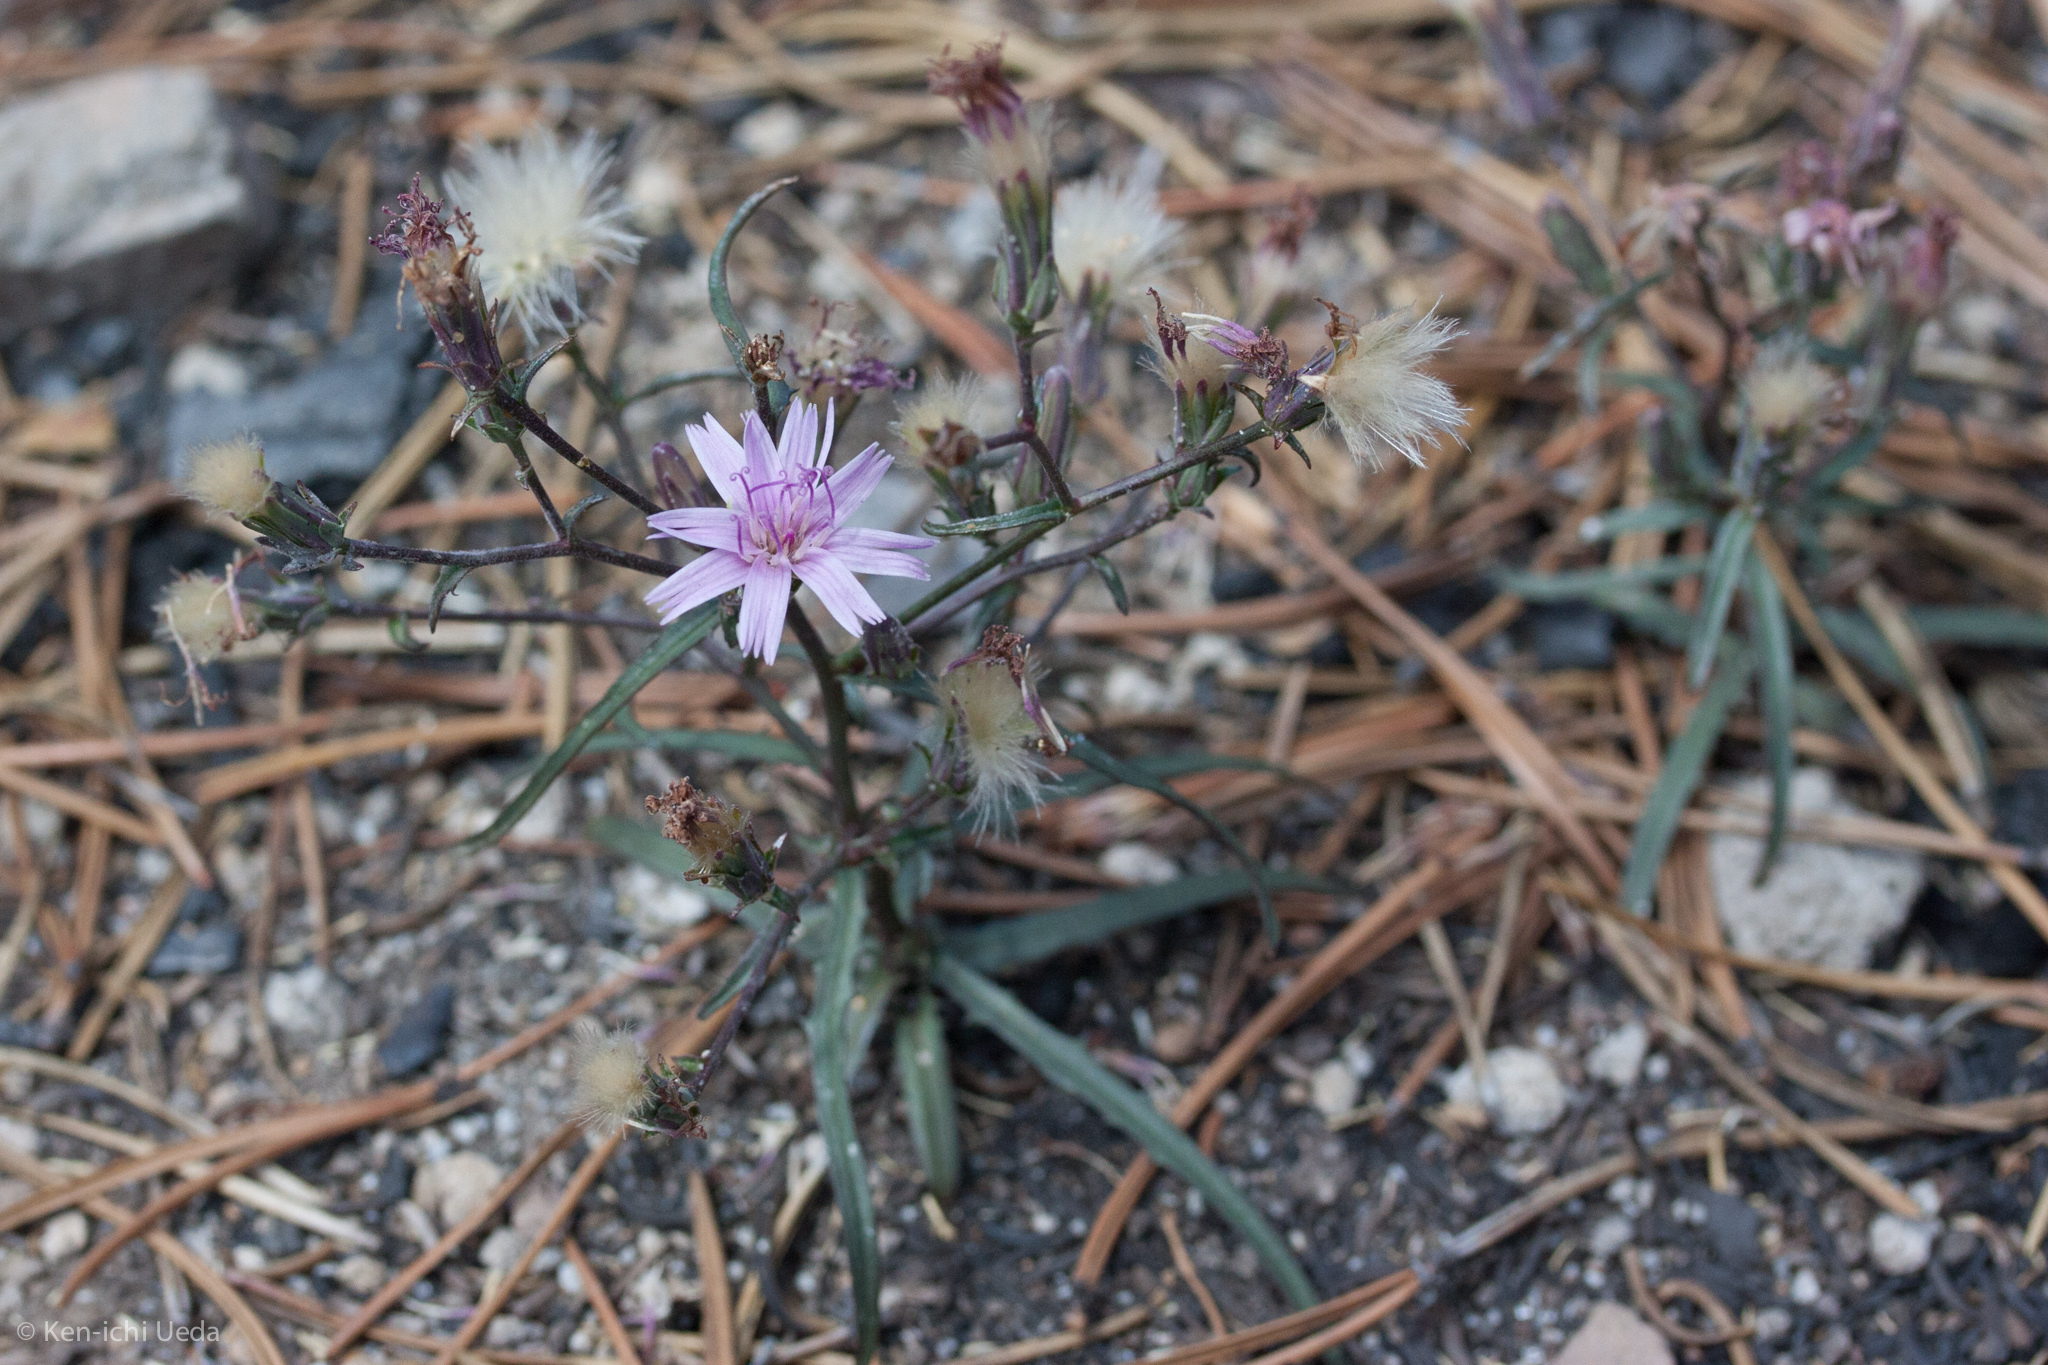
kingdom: Plantae
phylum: Tracheophyta
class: Magnoliopsida
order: Asterales
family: Asteraceae
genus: Stephanomeria
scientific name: Stephanomeria lactucina
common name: Large-flowered wirelettuce
